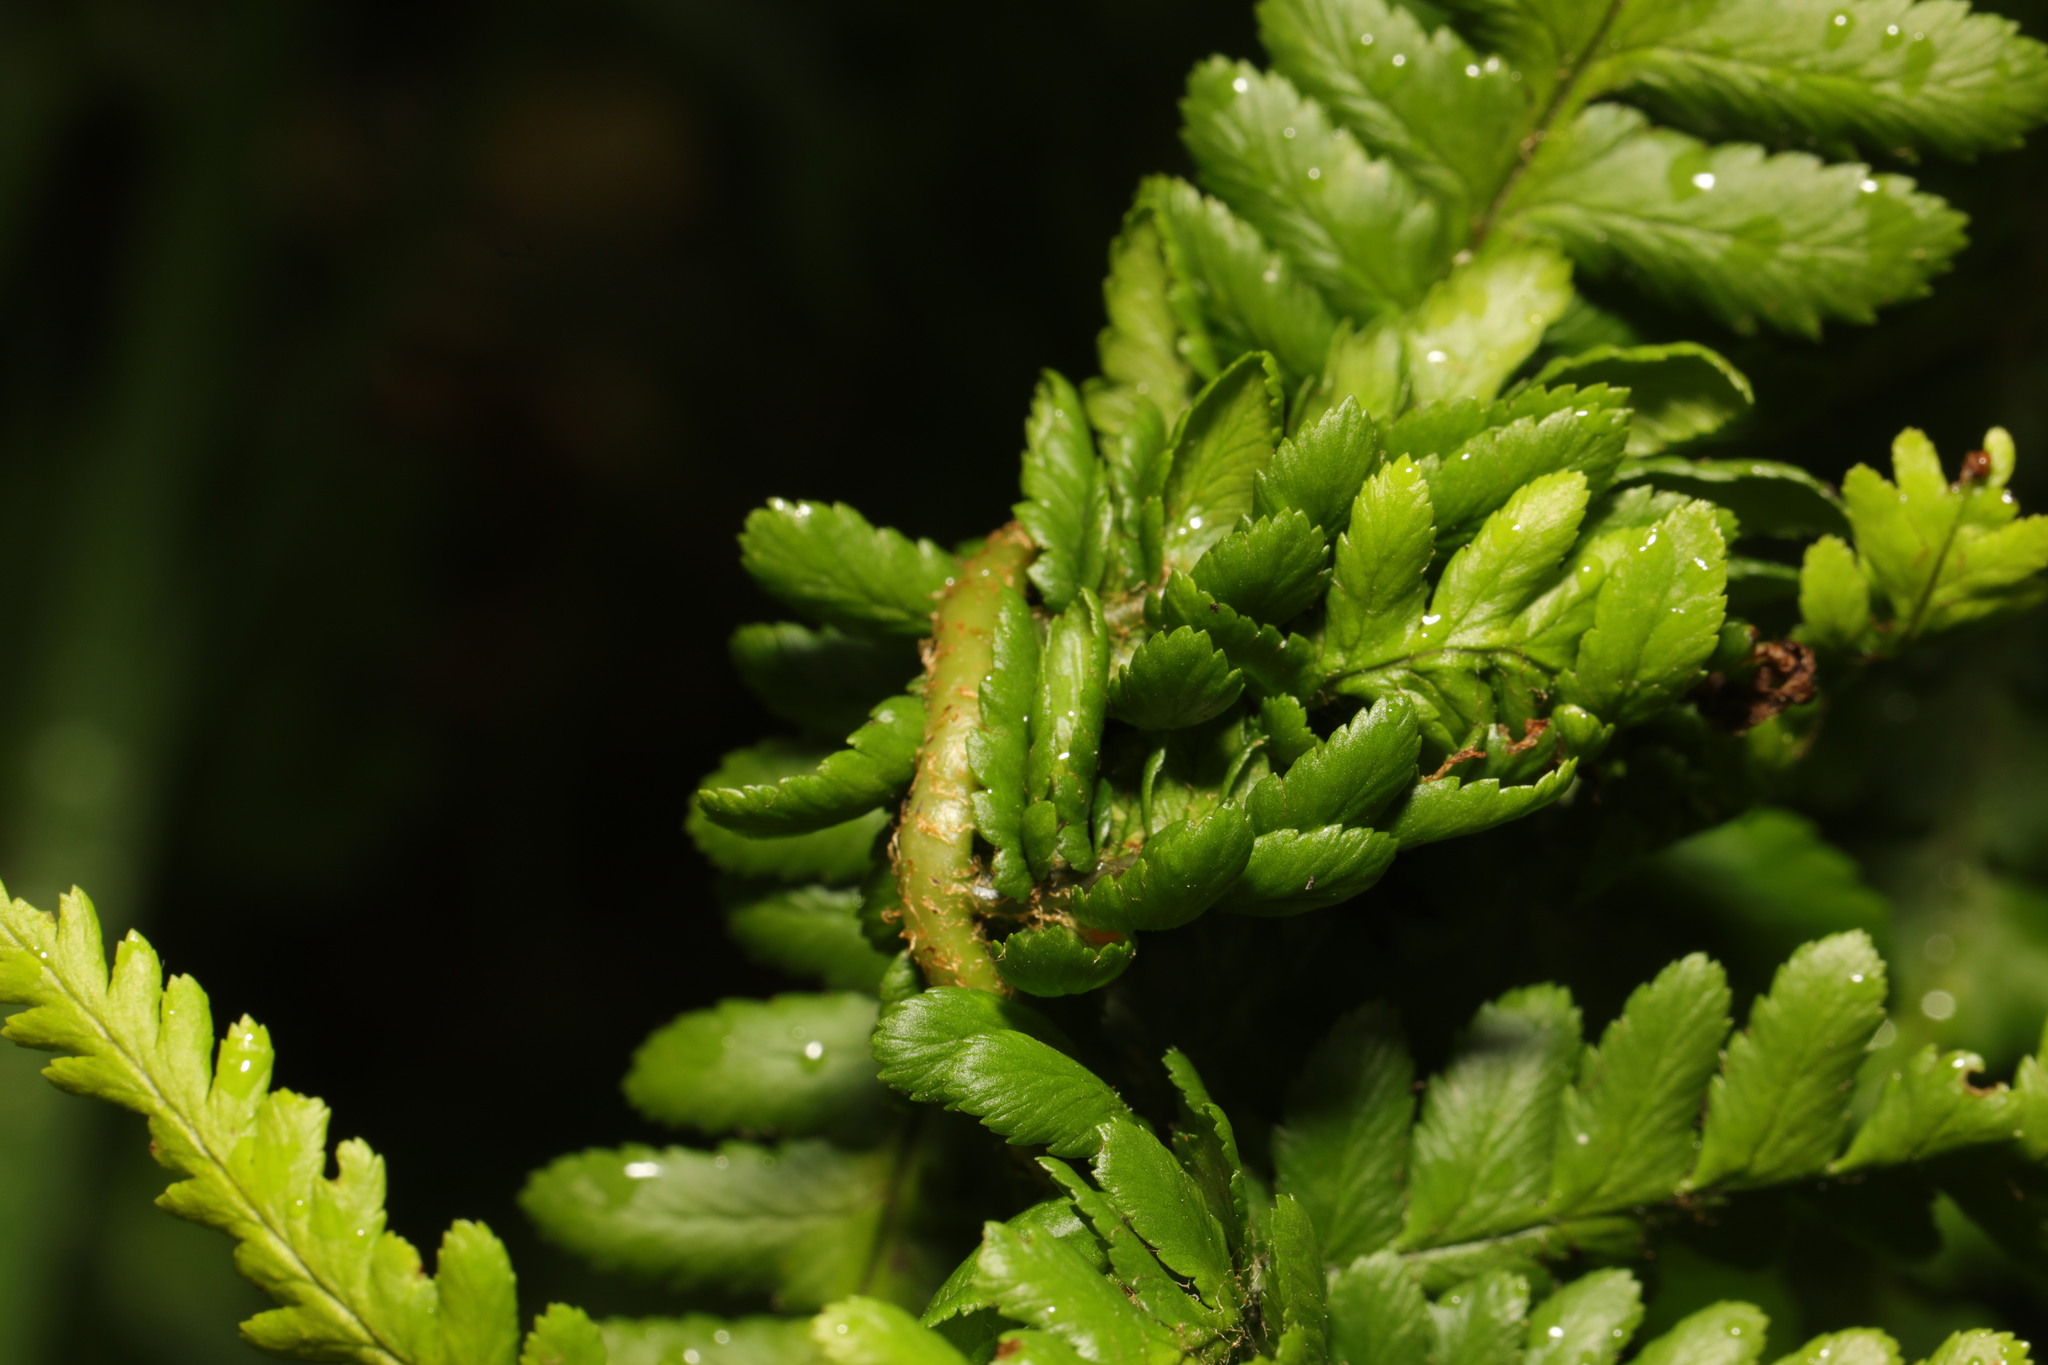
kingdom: Animalia
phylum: Arthropoda
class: Insecta
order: Diptera
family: Anthomyiidae
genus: Chirosia
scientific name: Chirosia betuleti
